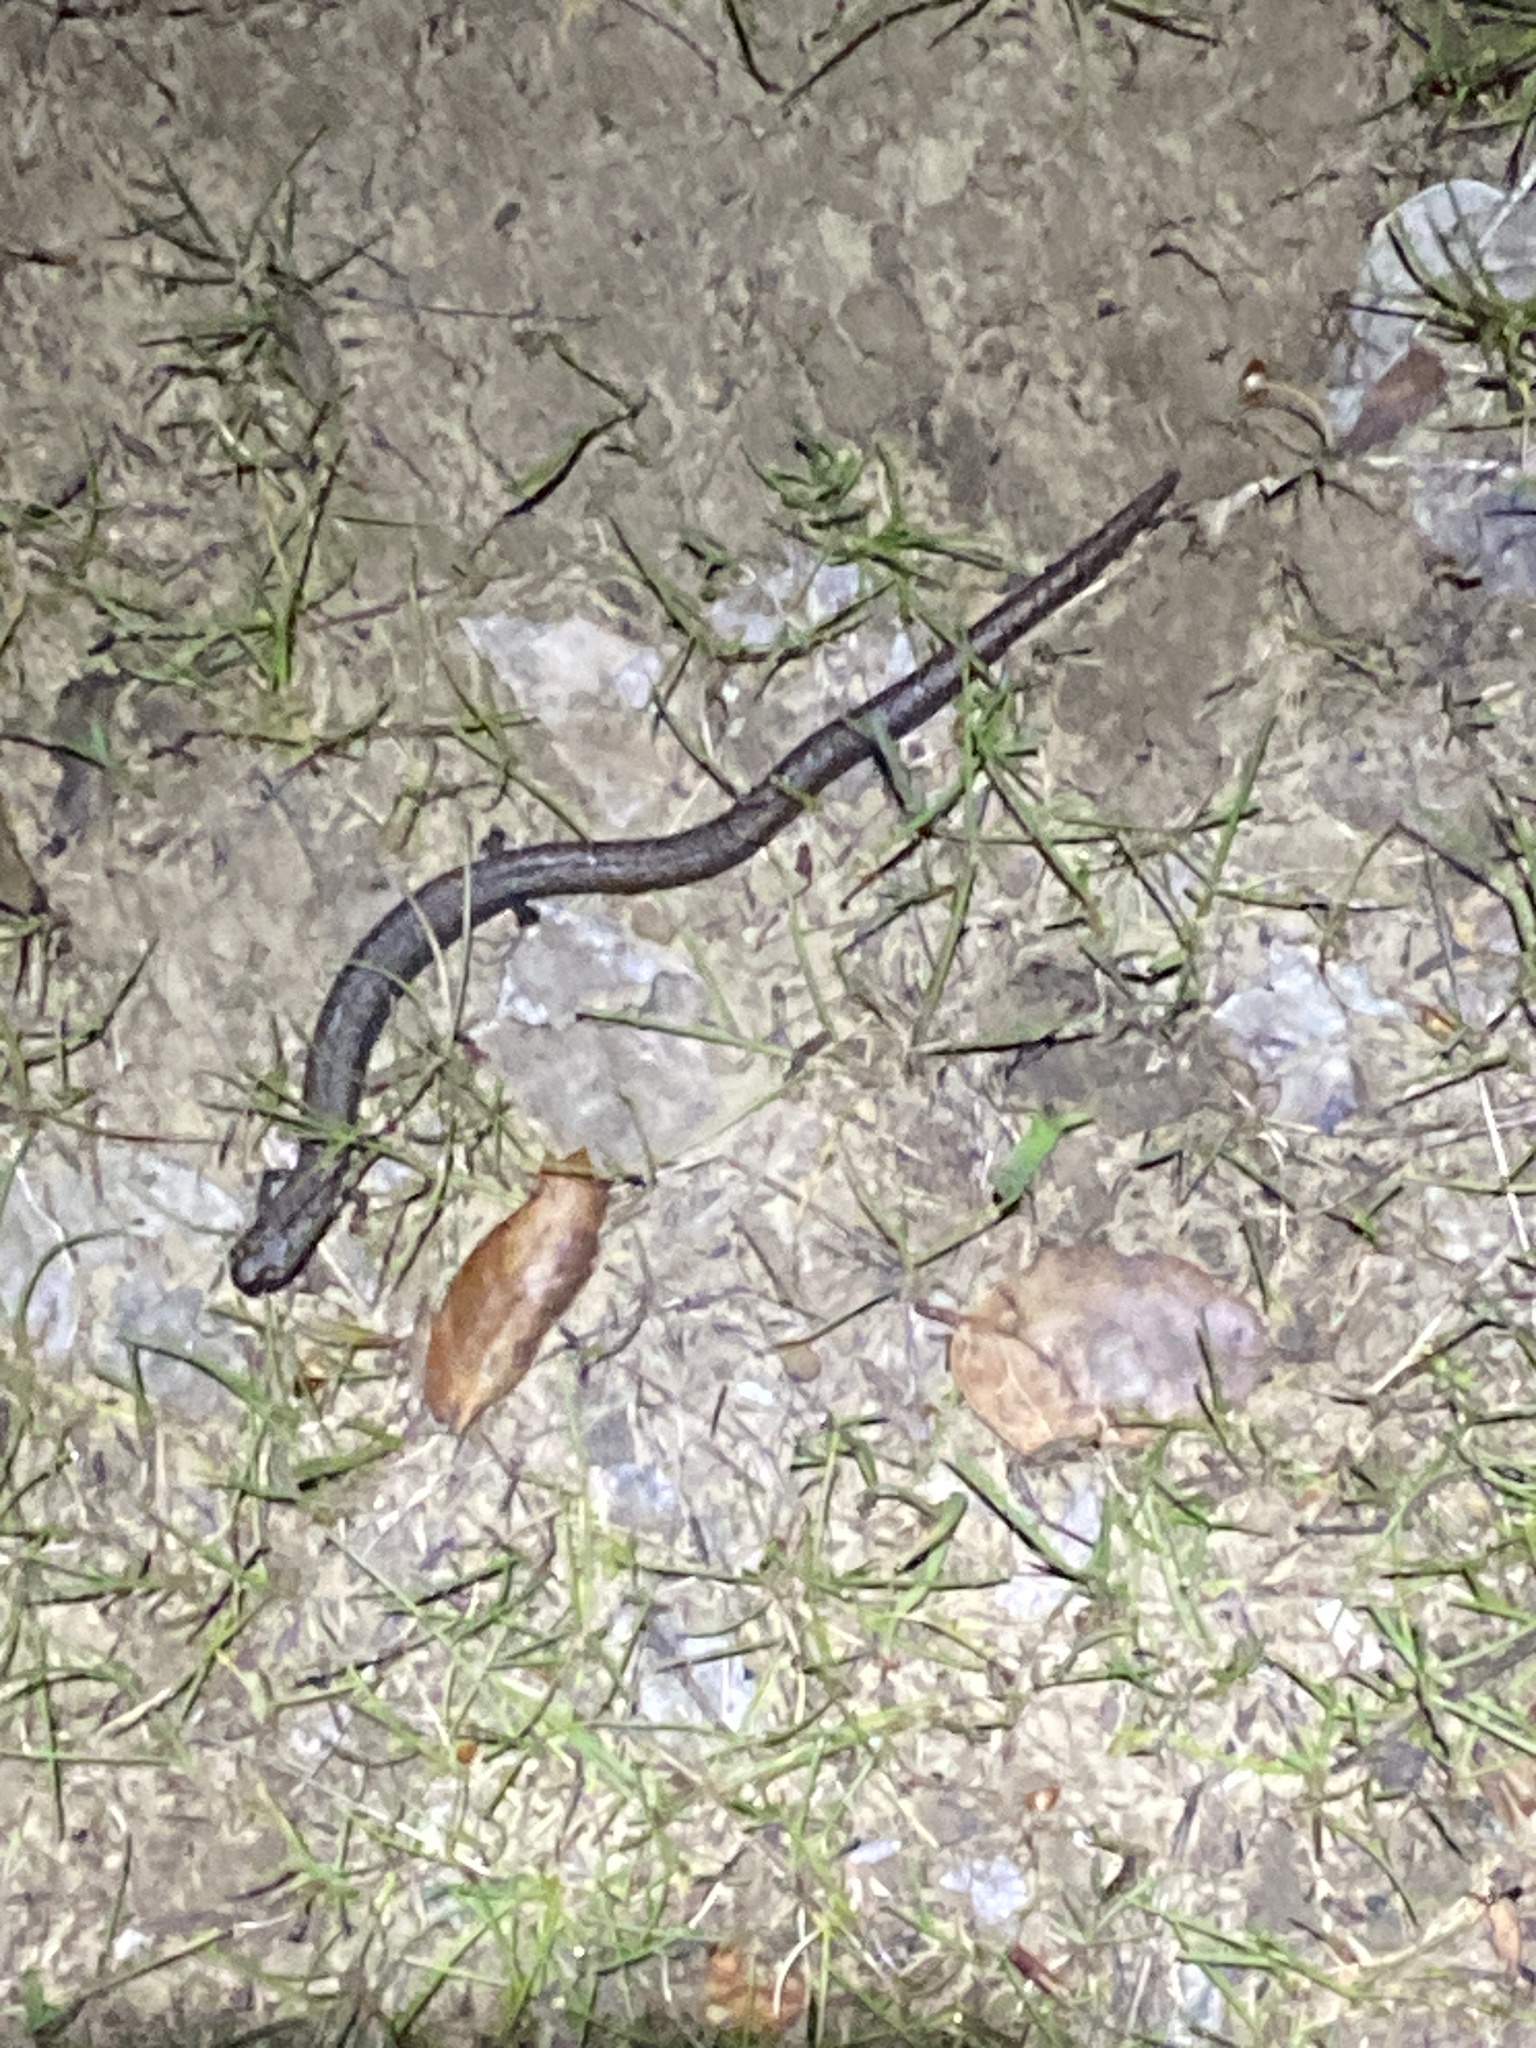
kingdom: Animalia
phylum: Chordata
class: Amphibia
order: Caudata
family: Plethodontidae
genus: Batrachoseps
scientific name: Batrachoseps attenuatus
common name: California slender salamander
